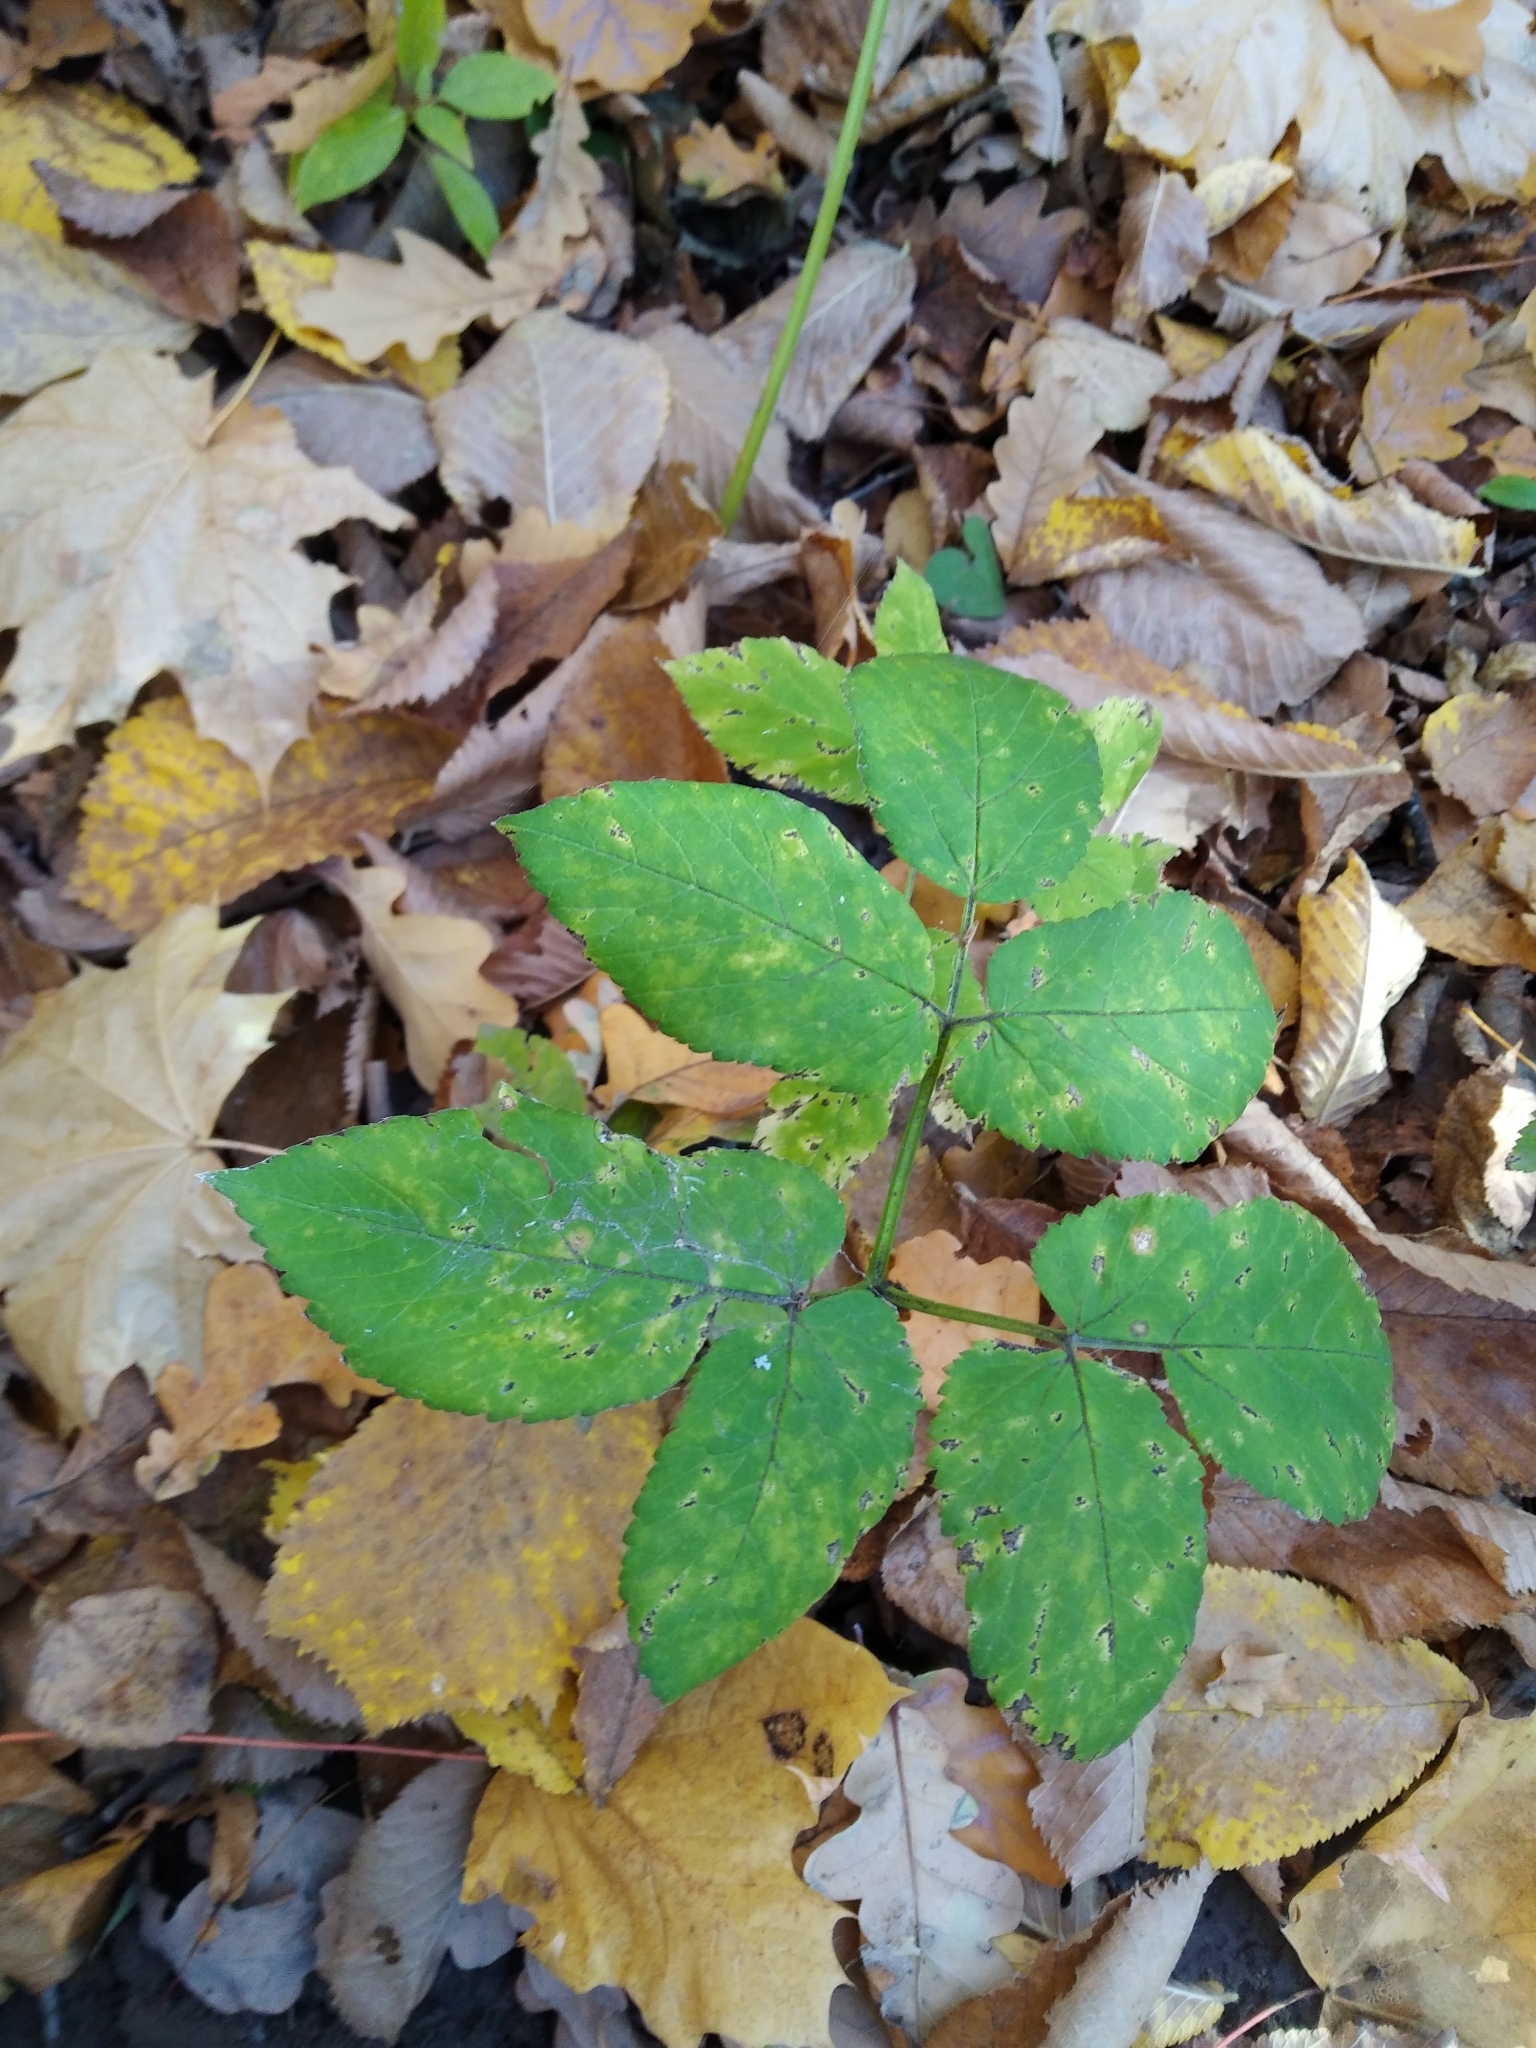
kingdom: Plantae
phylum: Tracheophyta
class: Magnoliopsida
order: Apiales
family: Apiaceae
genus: Aegopodium
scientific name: Aegopodium podagraria
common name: Ground-elder
